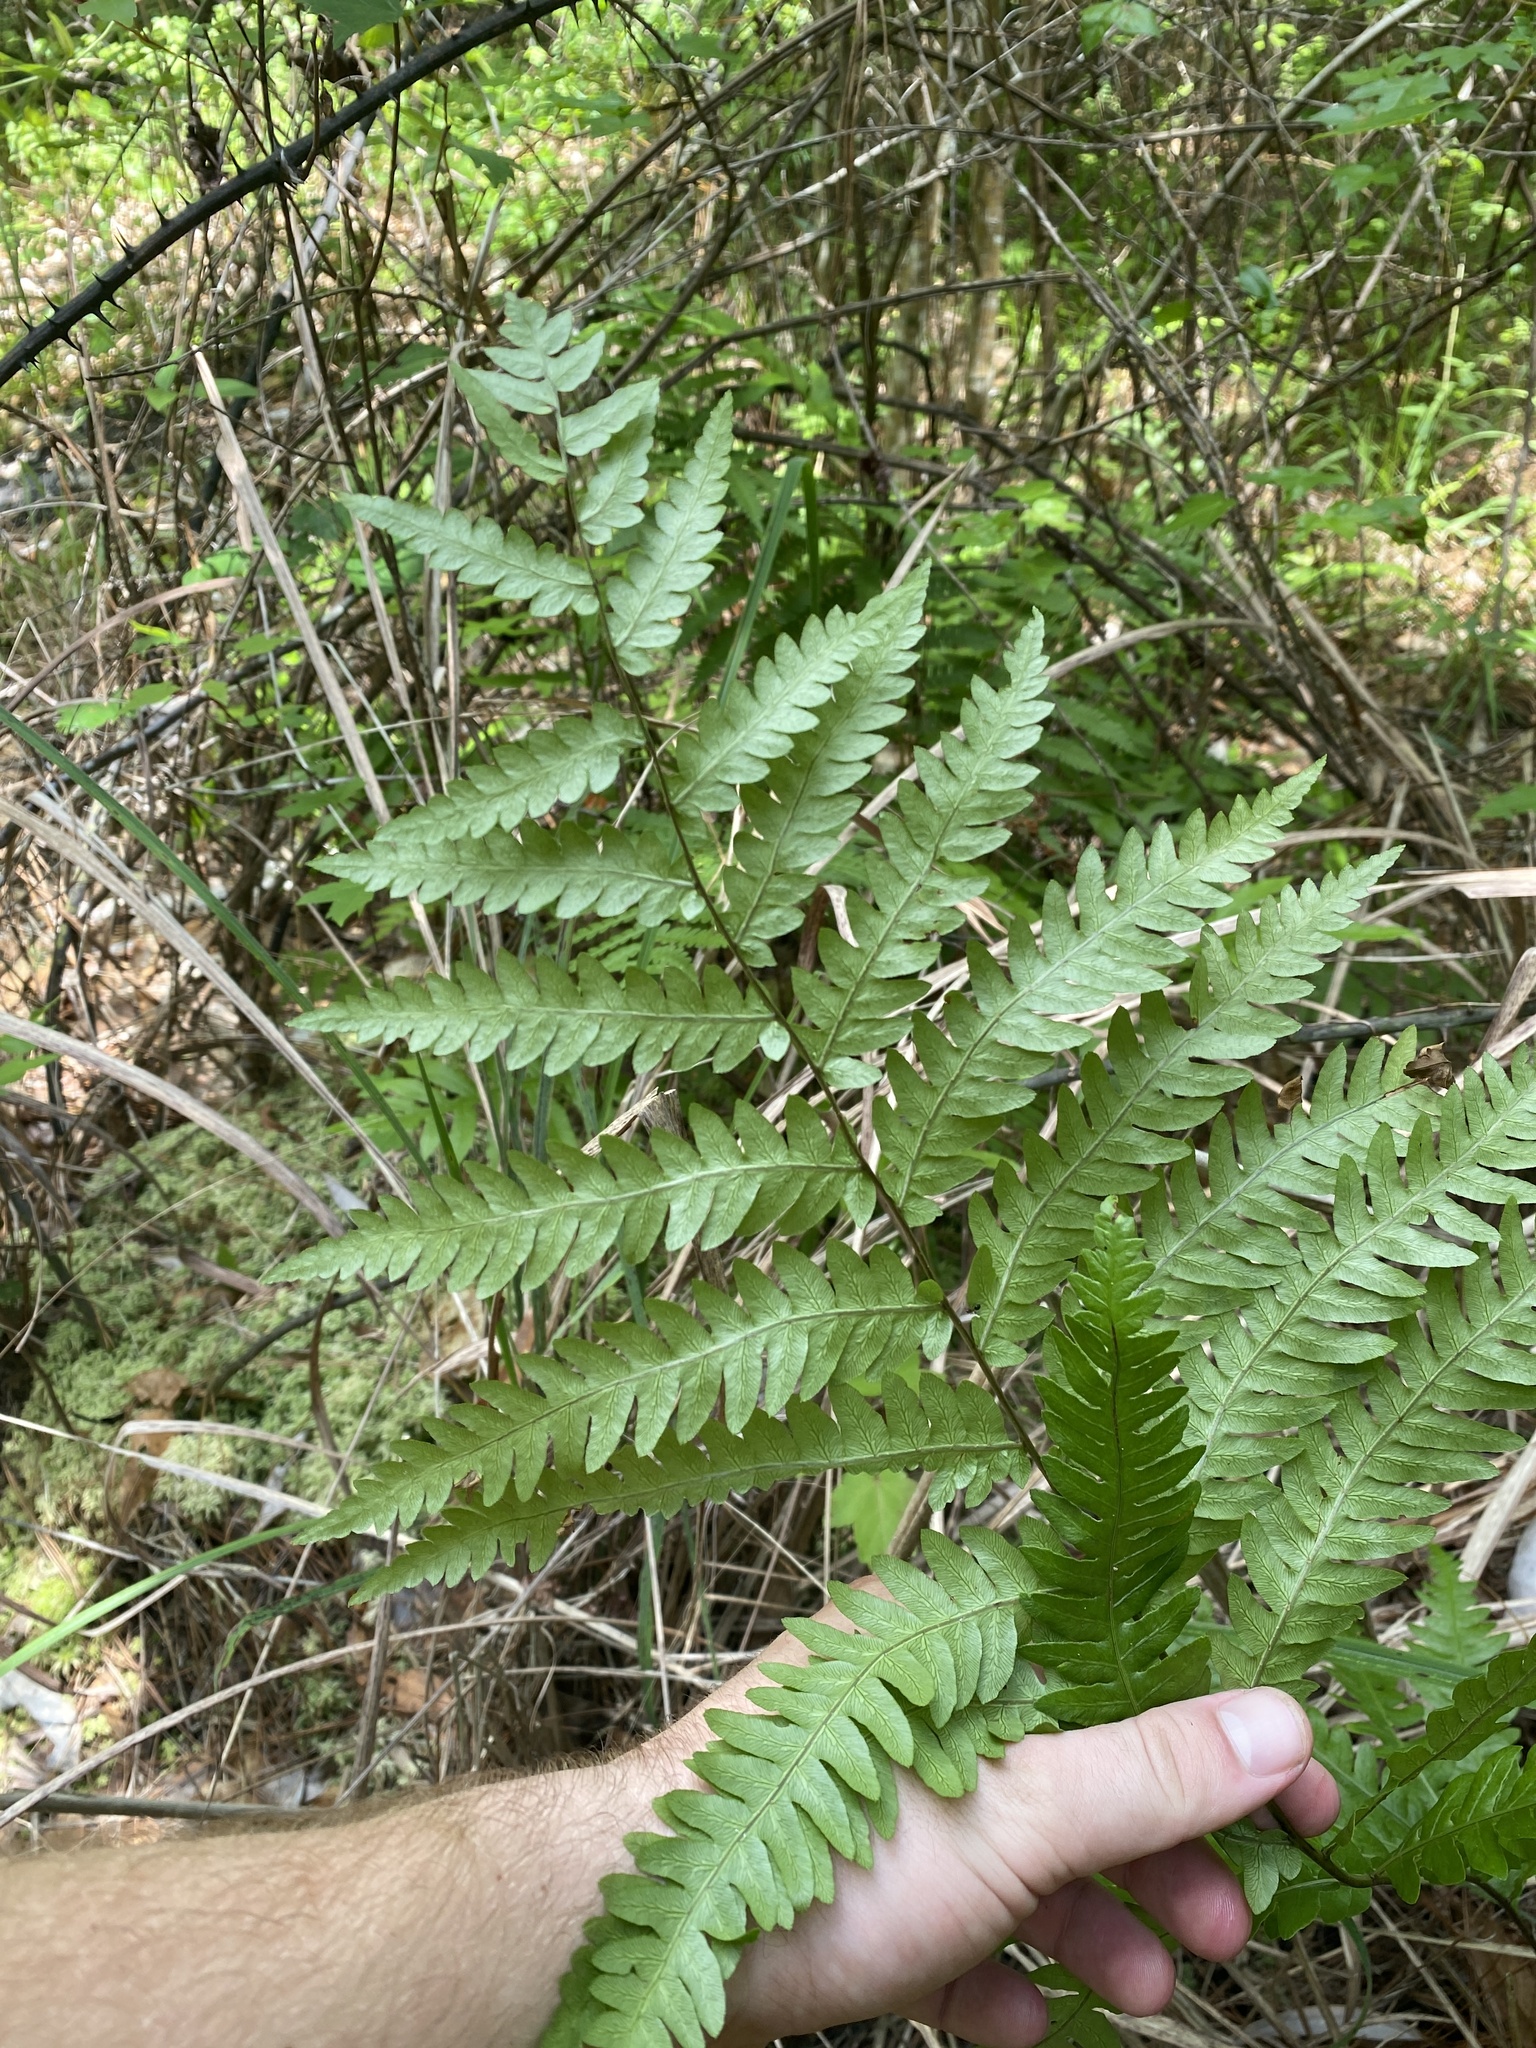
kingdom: Plantae
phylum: Tracheophyta
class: Polypodiopsida
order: Polypodiales
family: Blechnaceae
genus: Anchistea
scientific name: Anchistea virginica
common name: Virginia chain fern
